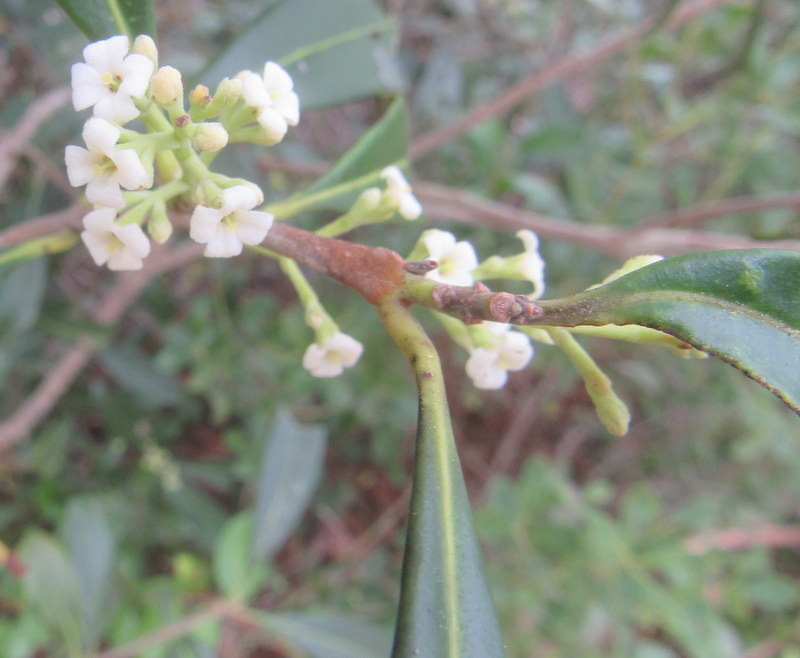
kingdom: Plantae
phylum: Tracheophyta
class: Magnoliopsida
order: Lamiales
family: Oleaceae
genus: Cartrema
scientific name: Cartrema americana
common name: Devilwood
